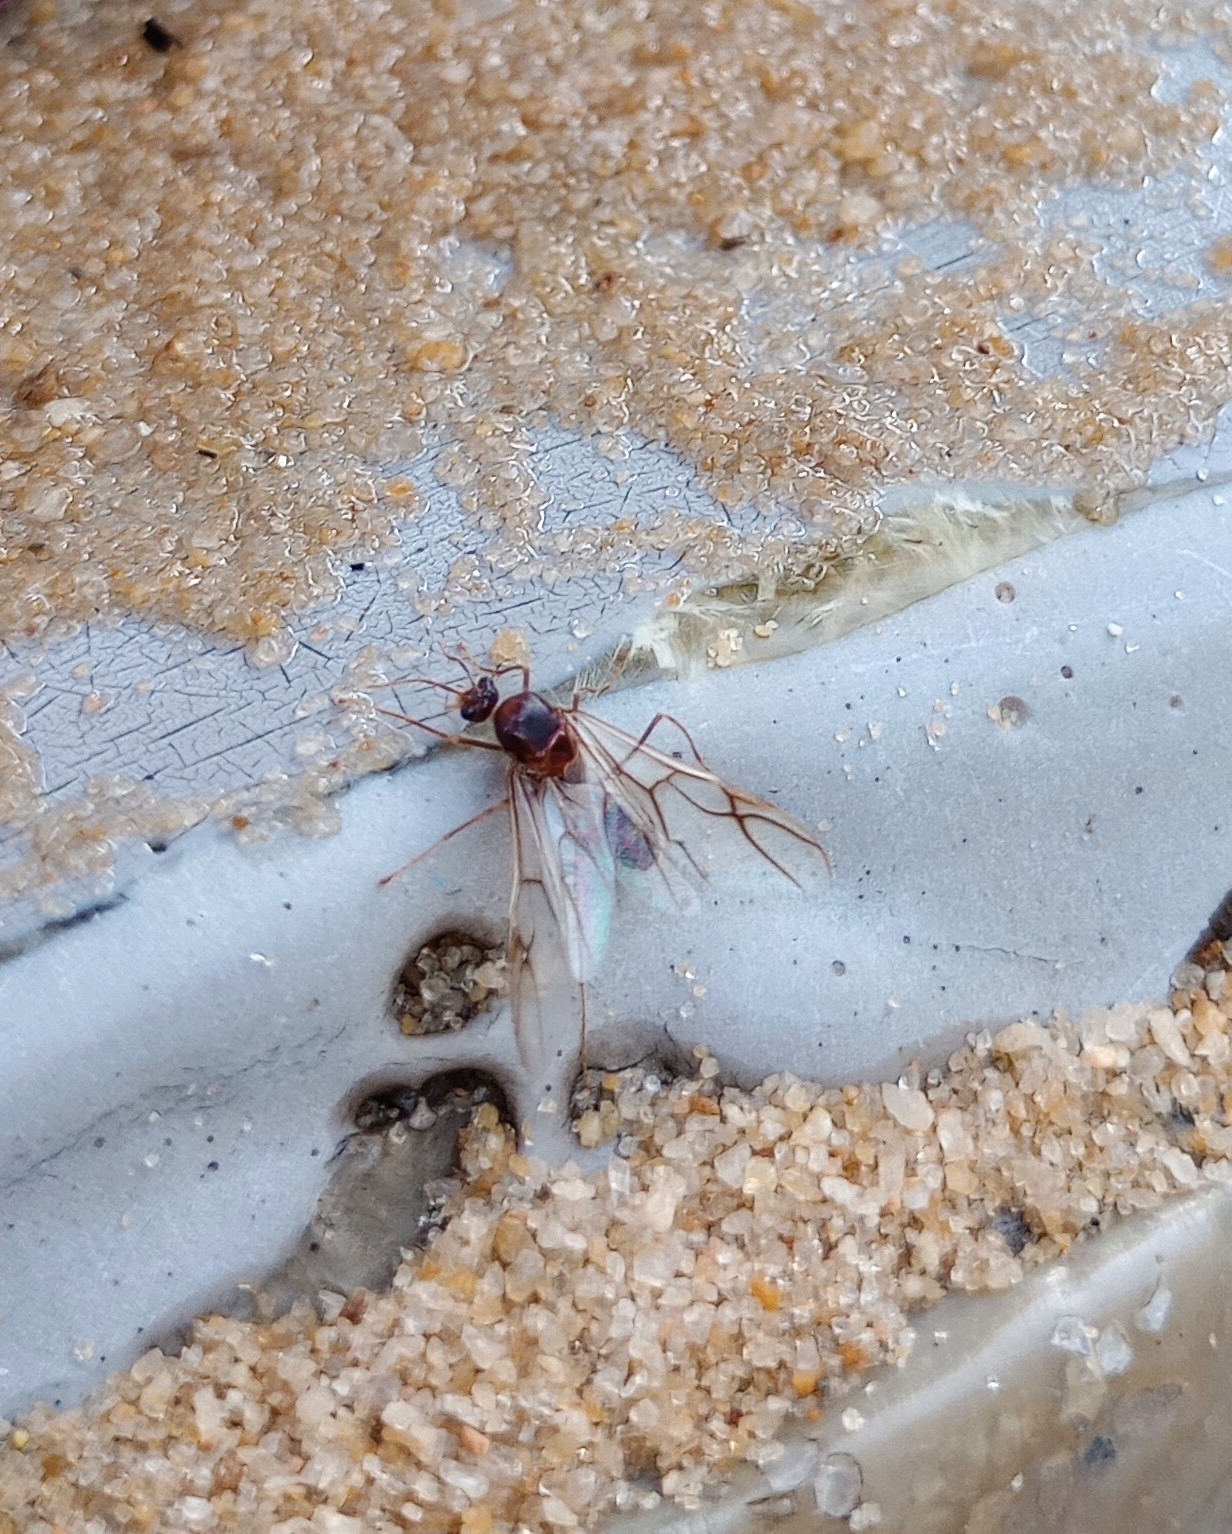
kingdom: Animalia
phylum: Arthropoda
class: Insecta
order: Hymenoptera
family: Formicidae
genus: Oecophylla
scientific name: Oecophylla smaragdina
